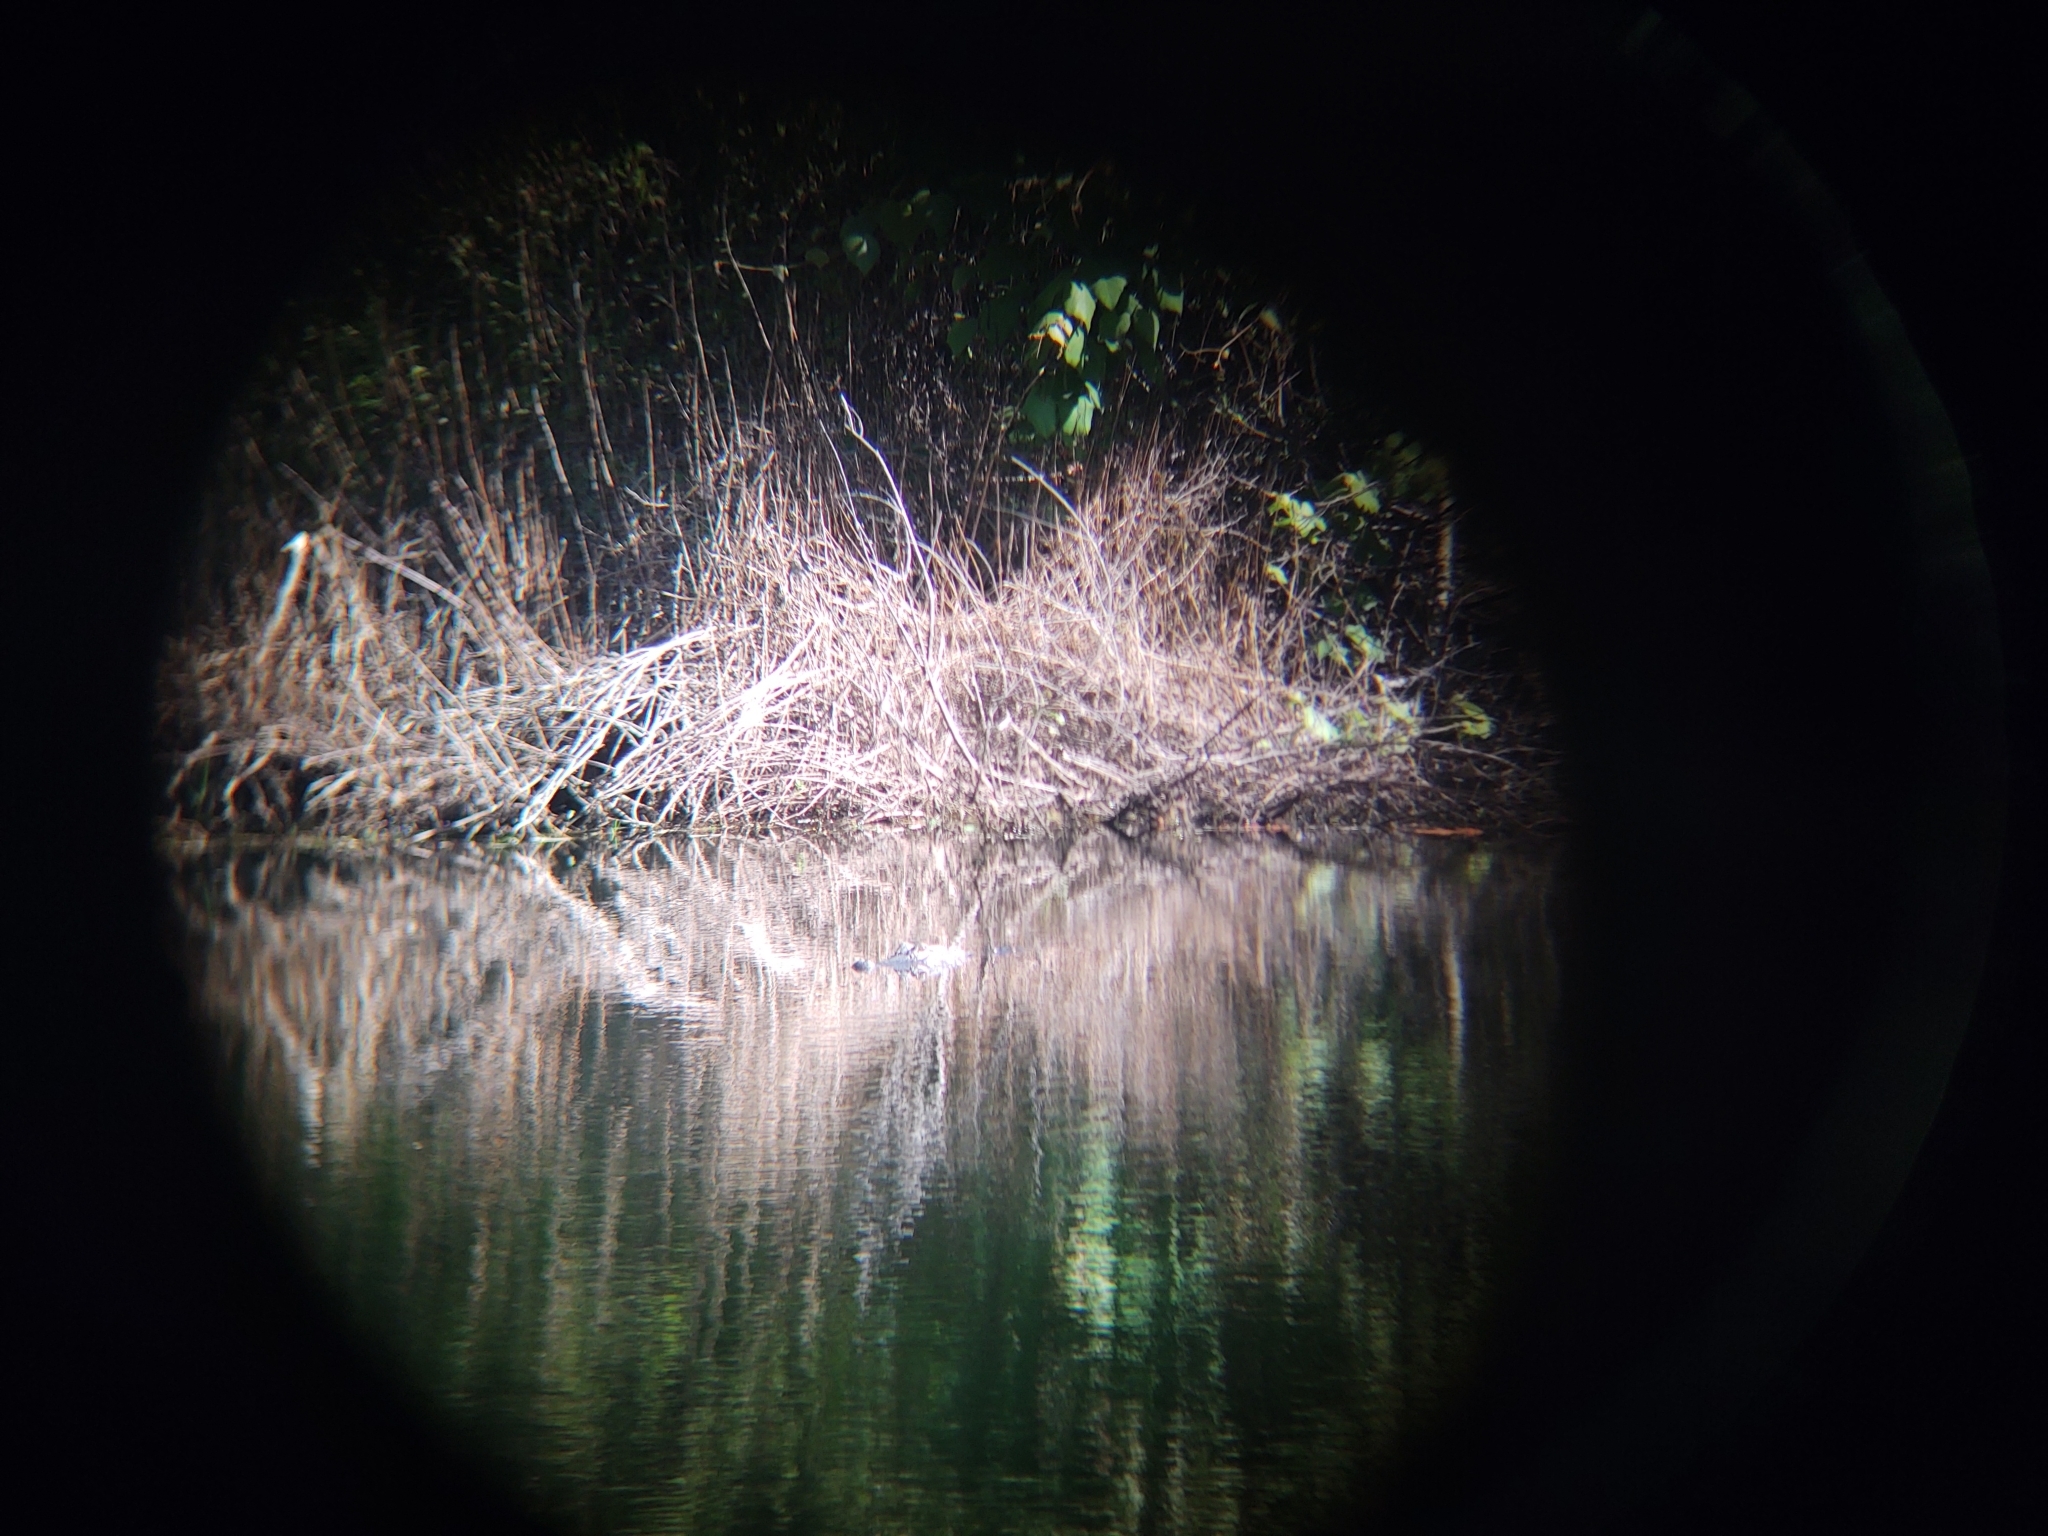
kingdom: Animalia
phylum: Chordata
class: Crocodylia
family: Alligatoridae
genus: Alligator
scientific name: Alligator mississippiensis
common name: American alligator
